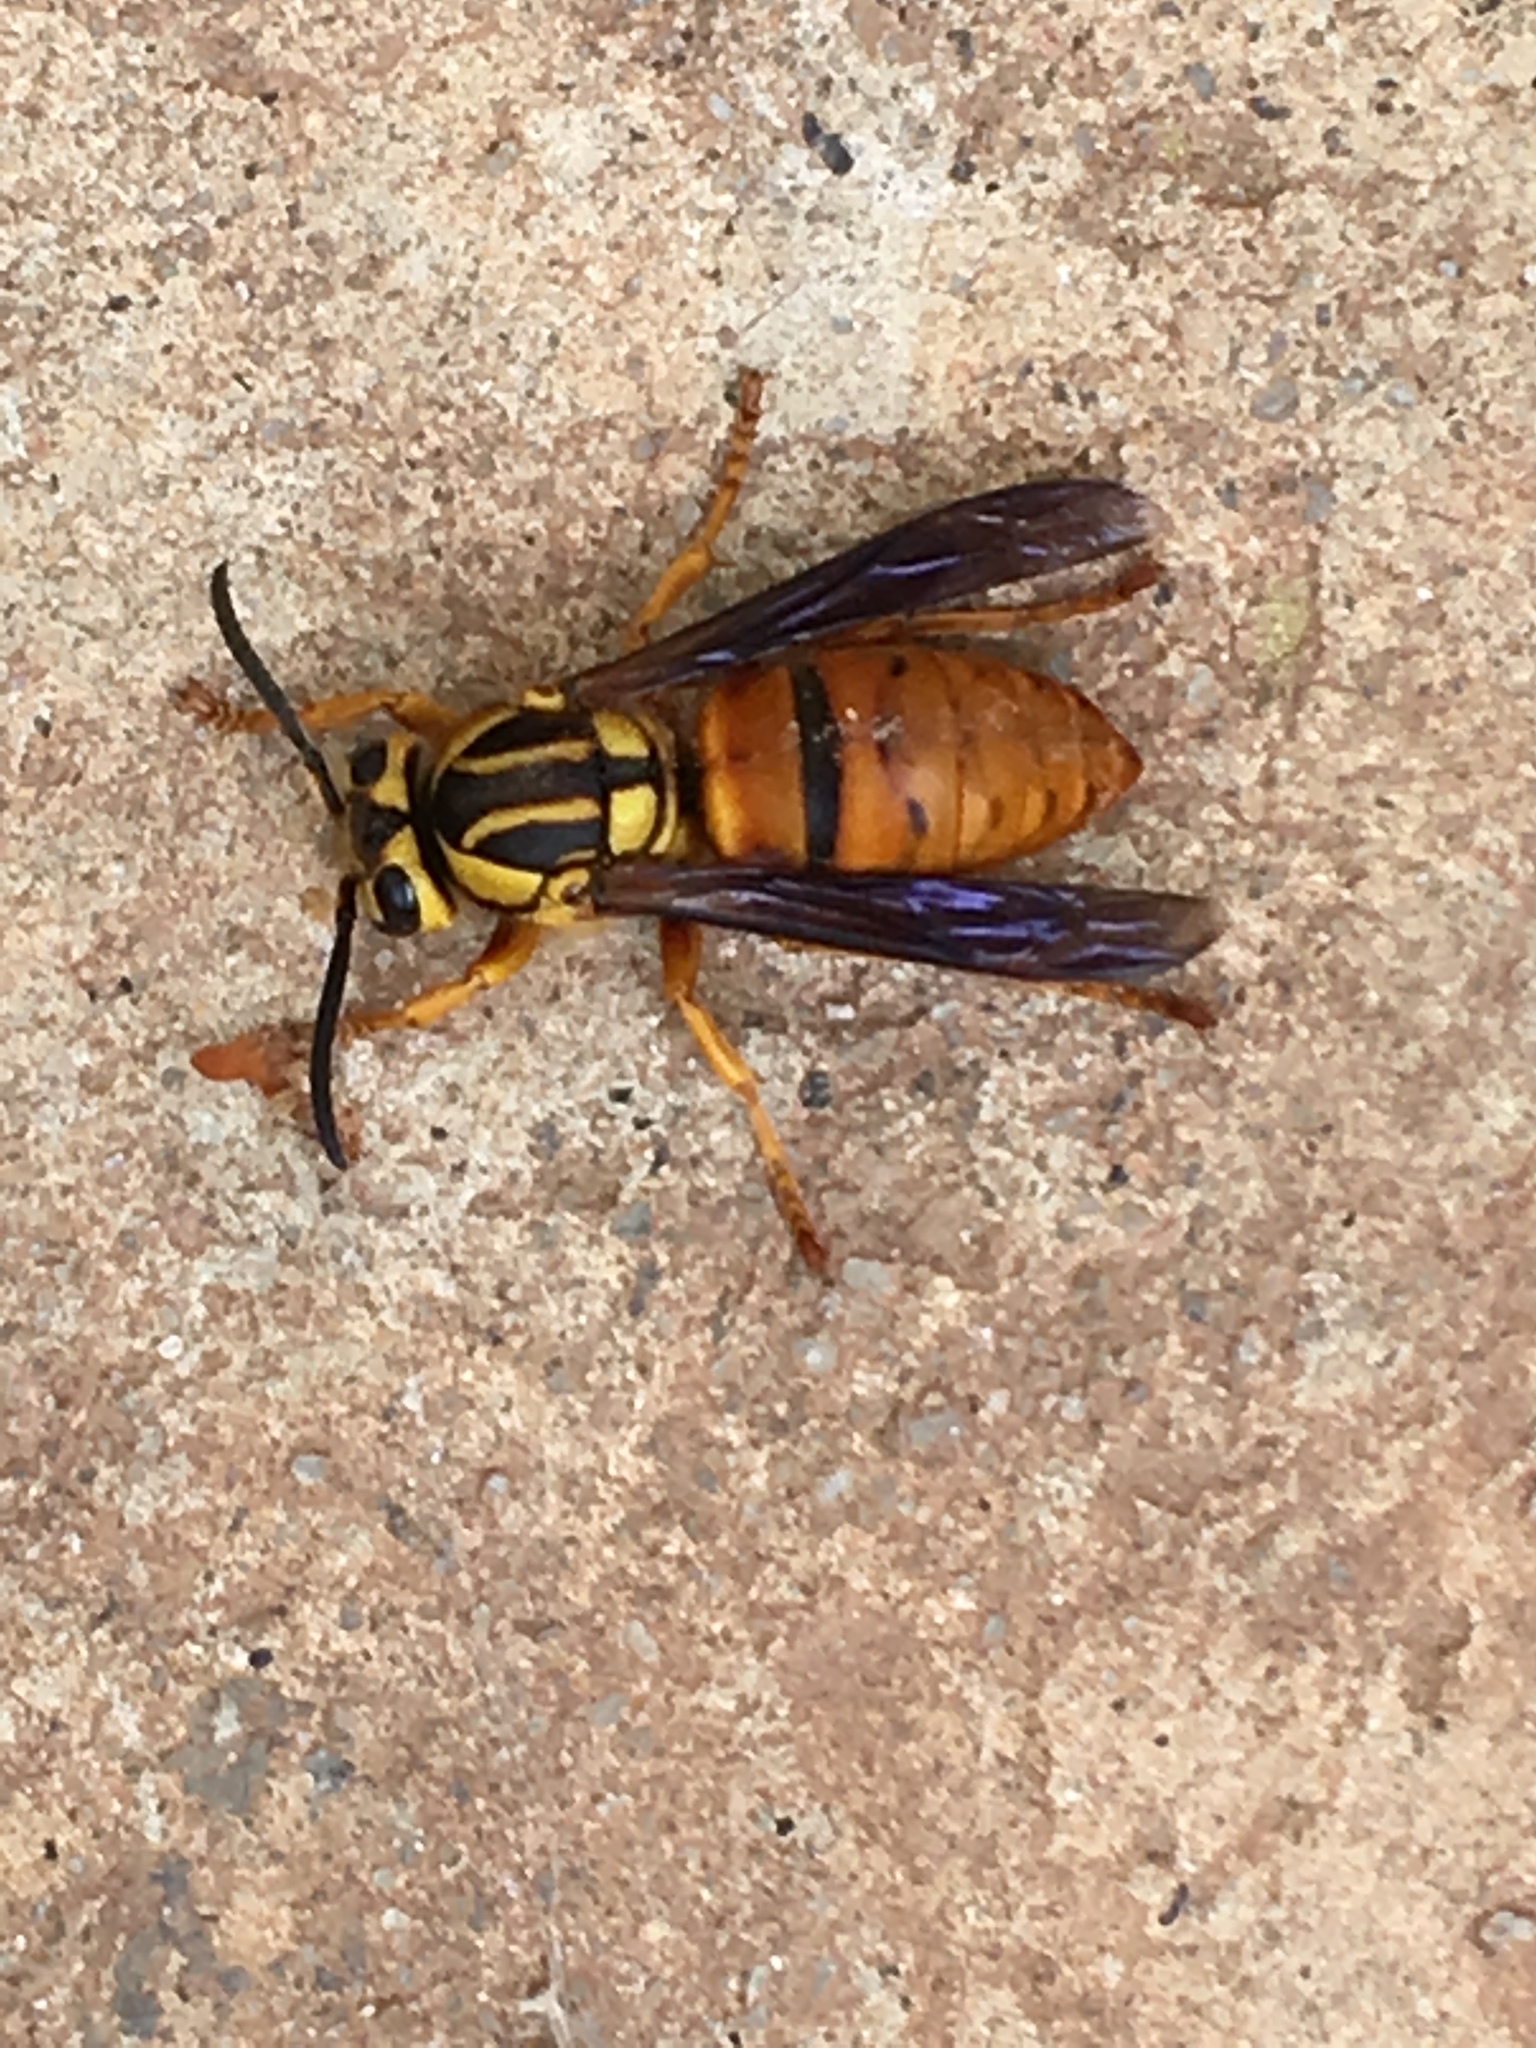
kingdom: Animalia
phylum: Arthropoda
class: Insecta
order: Hymenoptera
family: Vespidae
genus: Vespula
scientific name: Vespula squamosa
